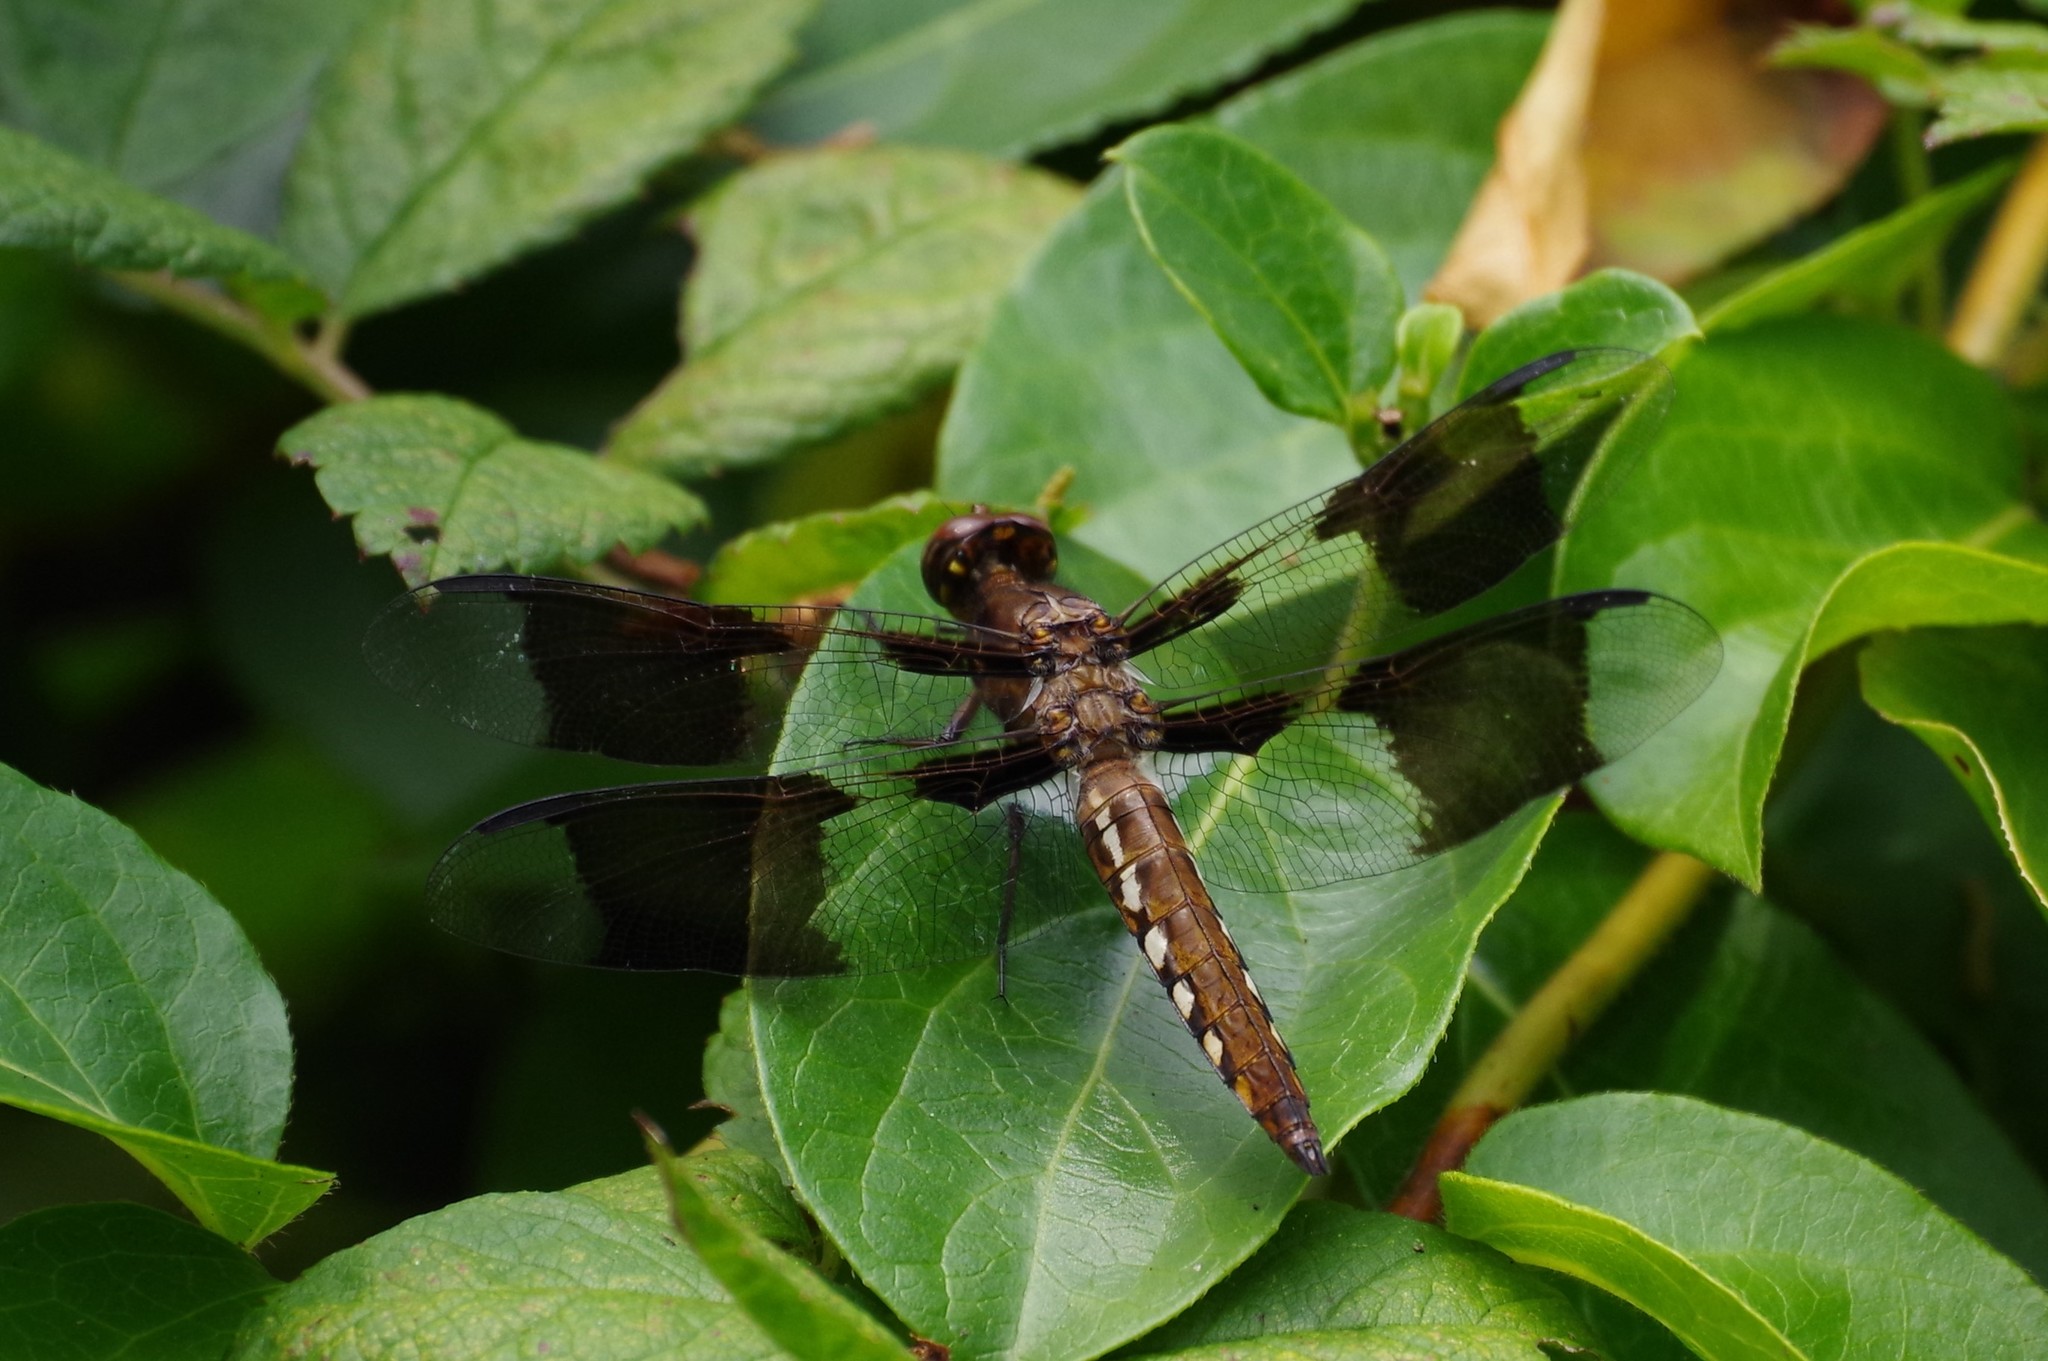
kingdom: Animalia
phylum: Arthropoda
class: Insecta
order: Odonata
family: Libellulidae
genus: Plathemis
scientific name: Plathemis lydia
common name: Common whitetail
